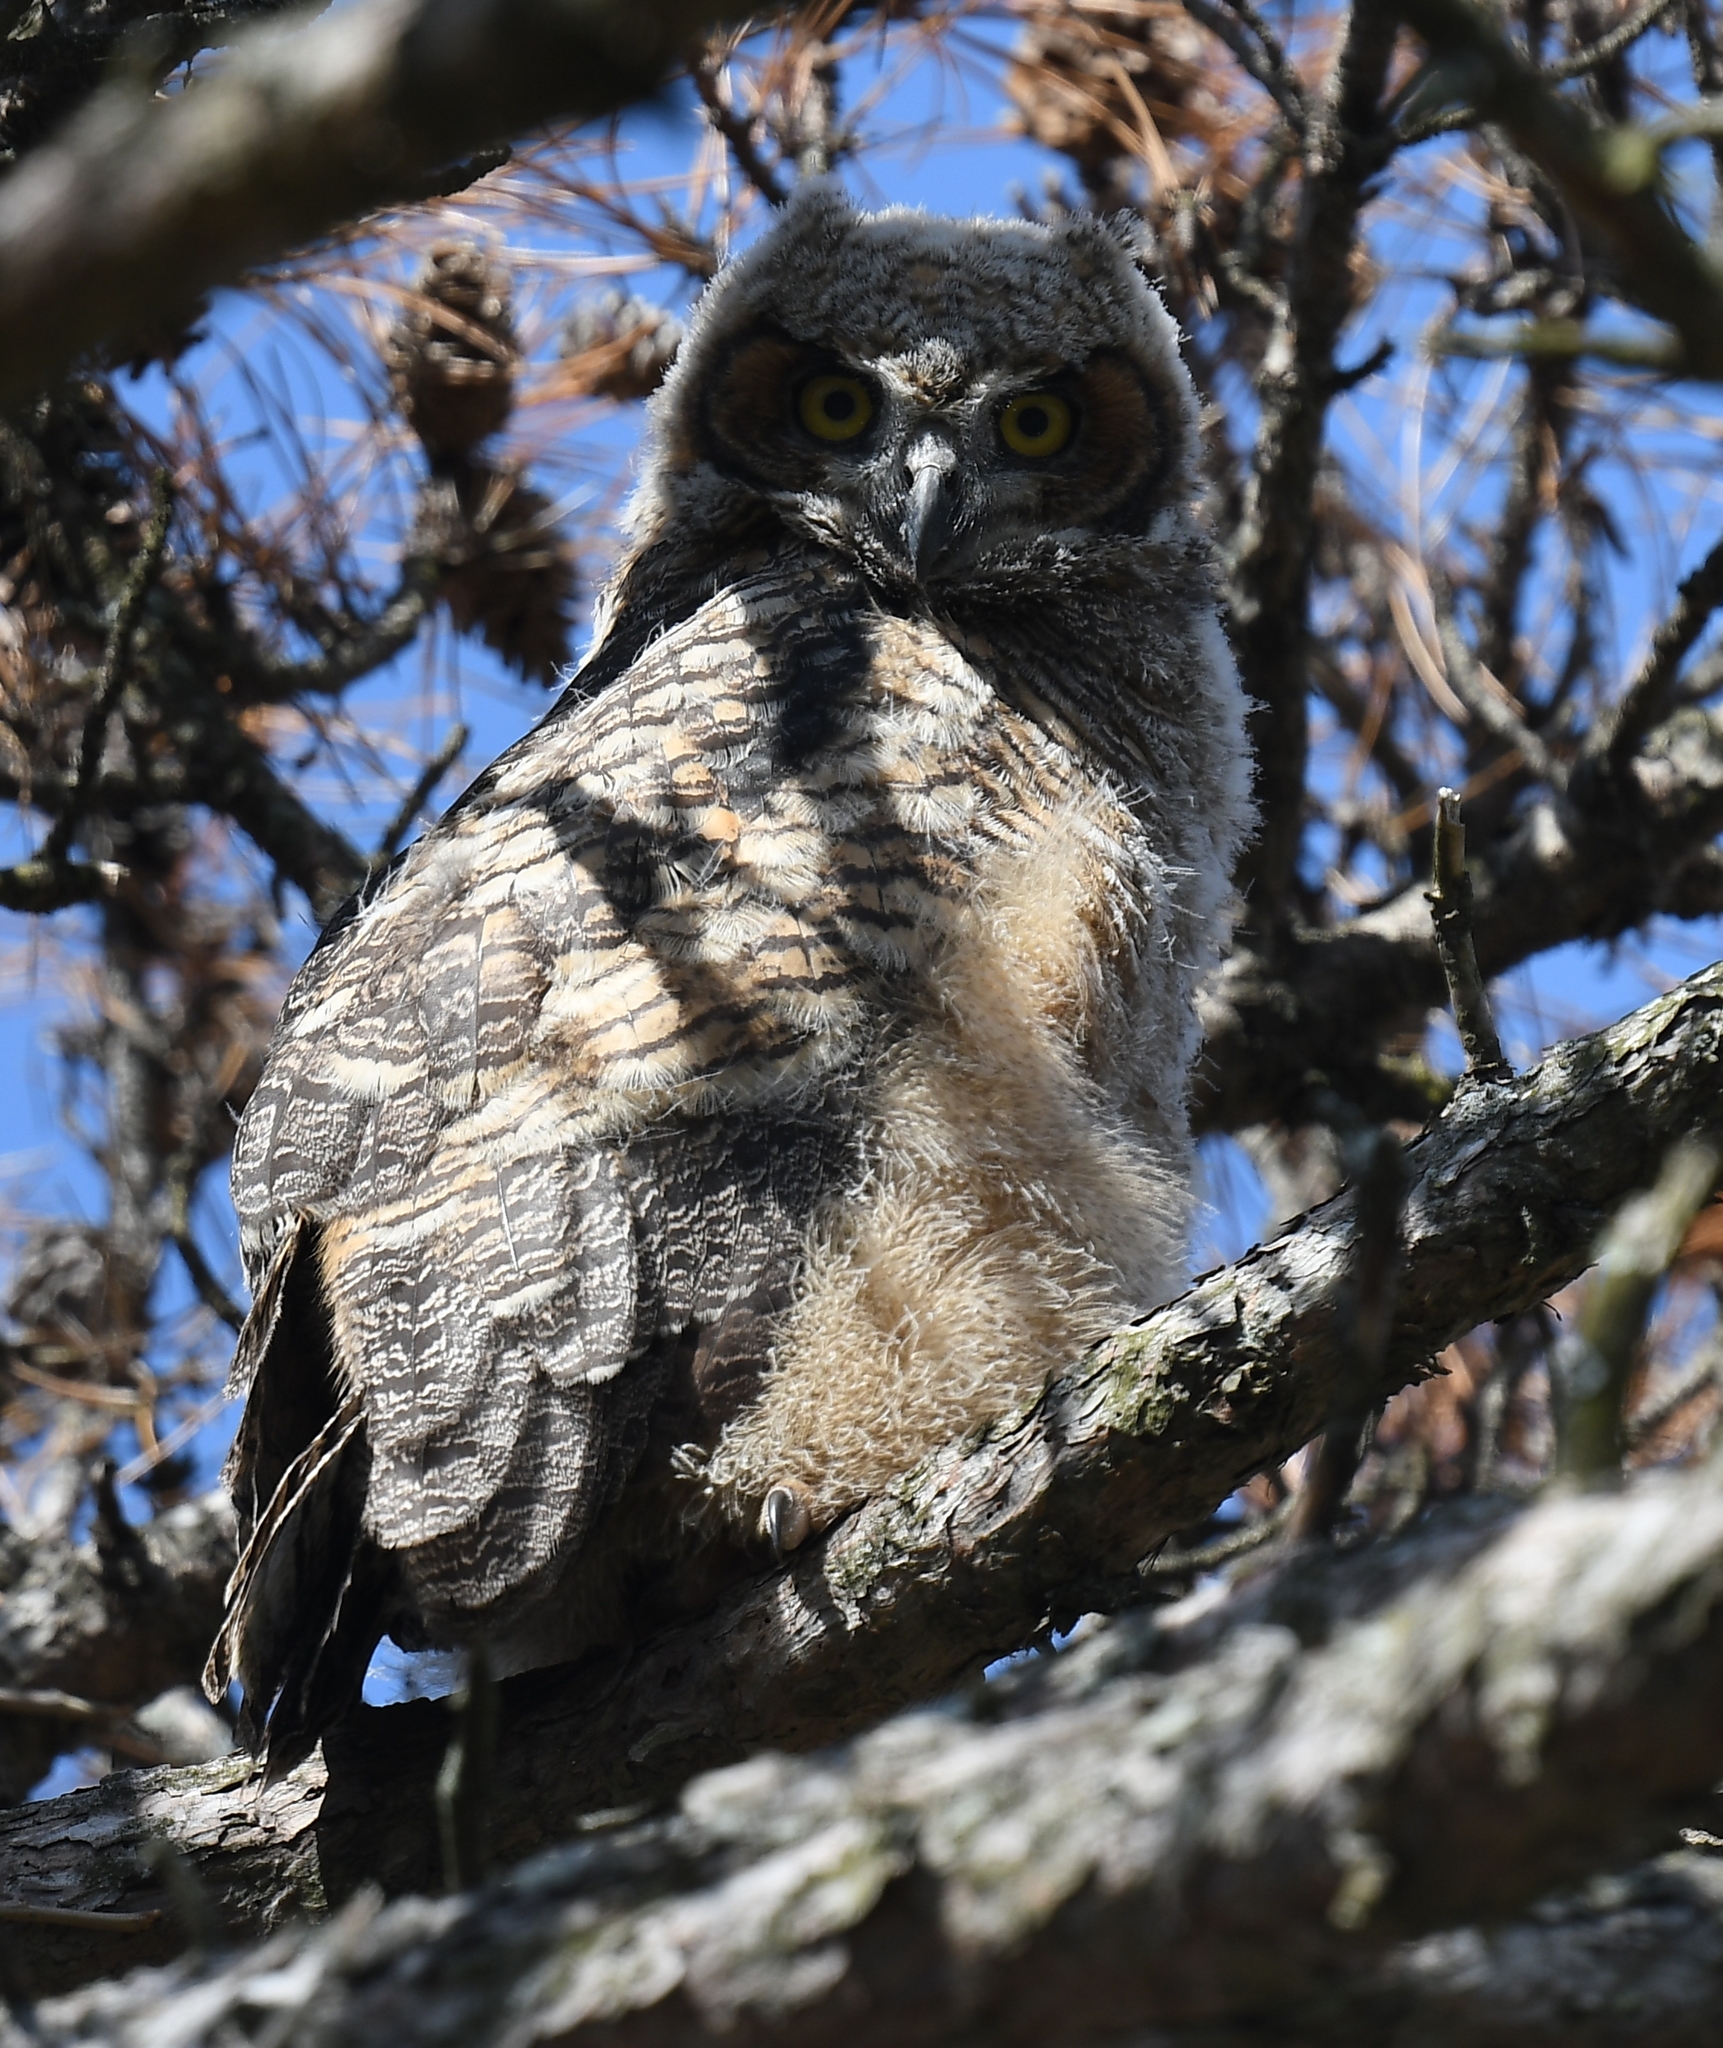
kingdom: Animalia
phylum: Chordata
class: Aves
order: Strigiformes
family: Strigidae
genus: Bubo
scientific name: Bubo virginianus
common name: Great horned owl
